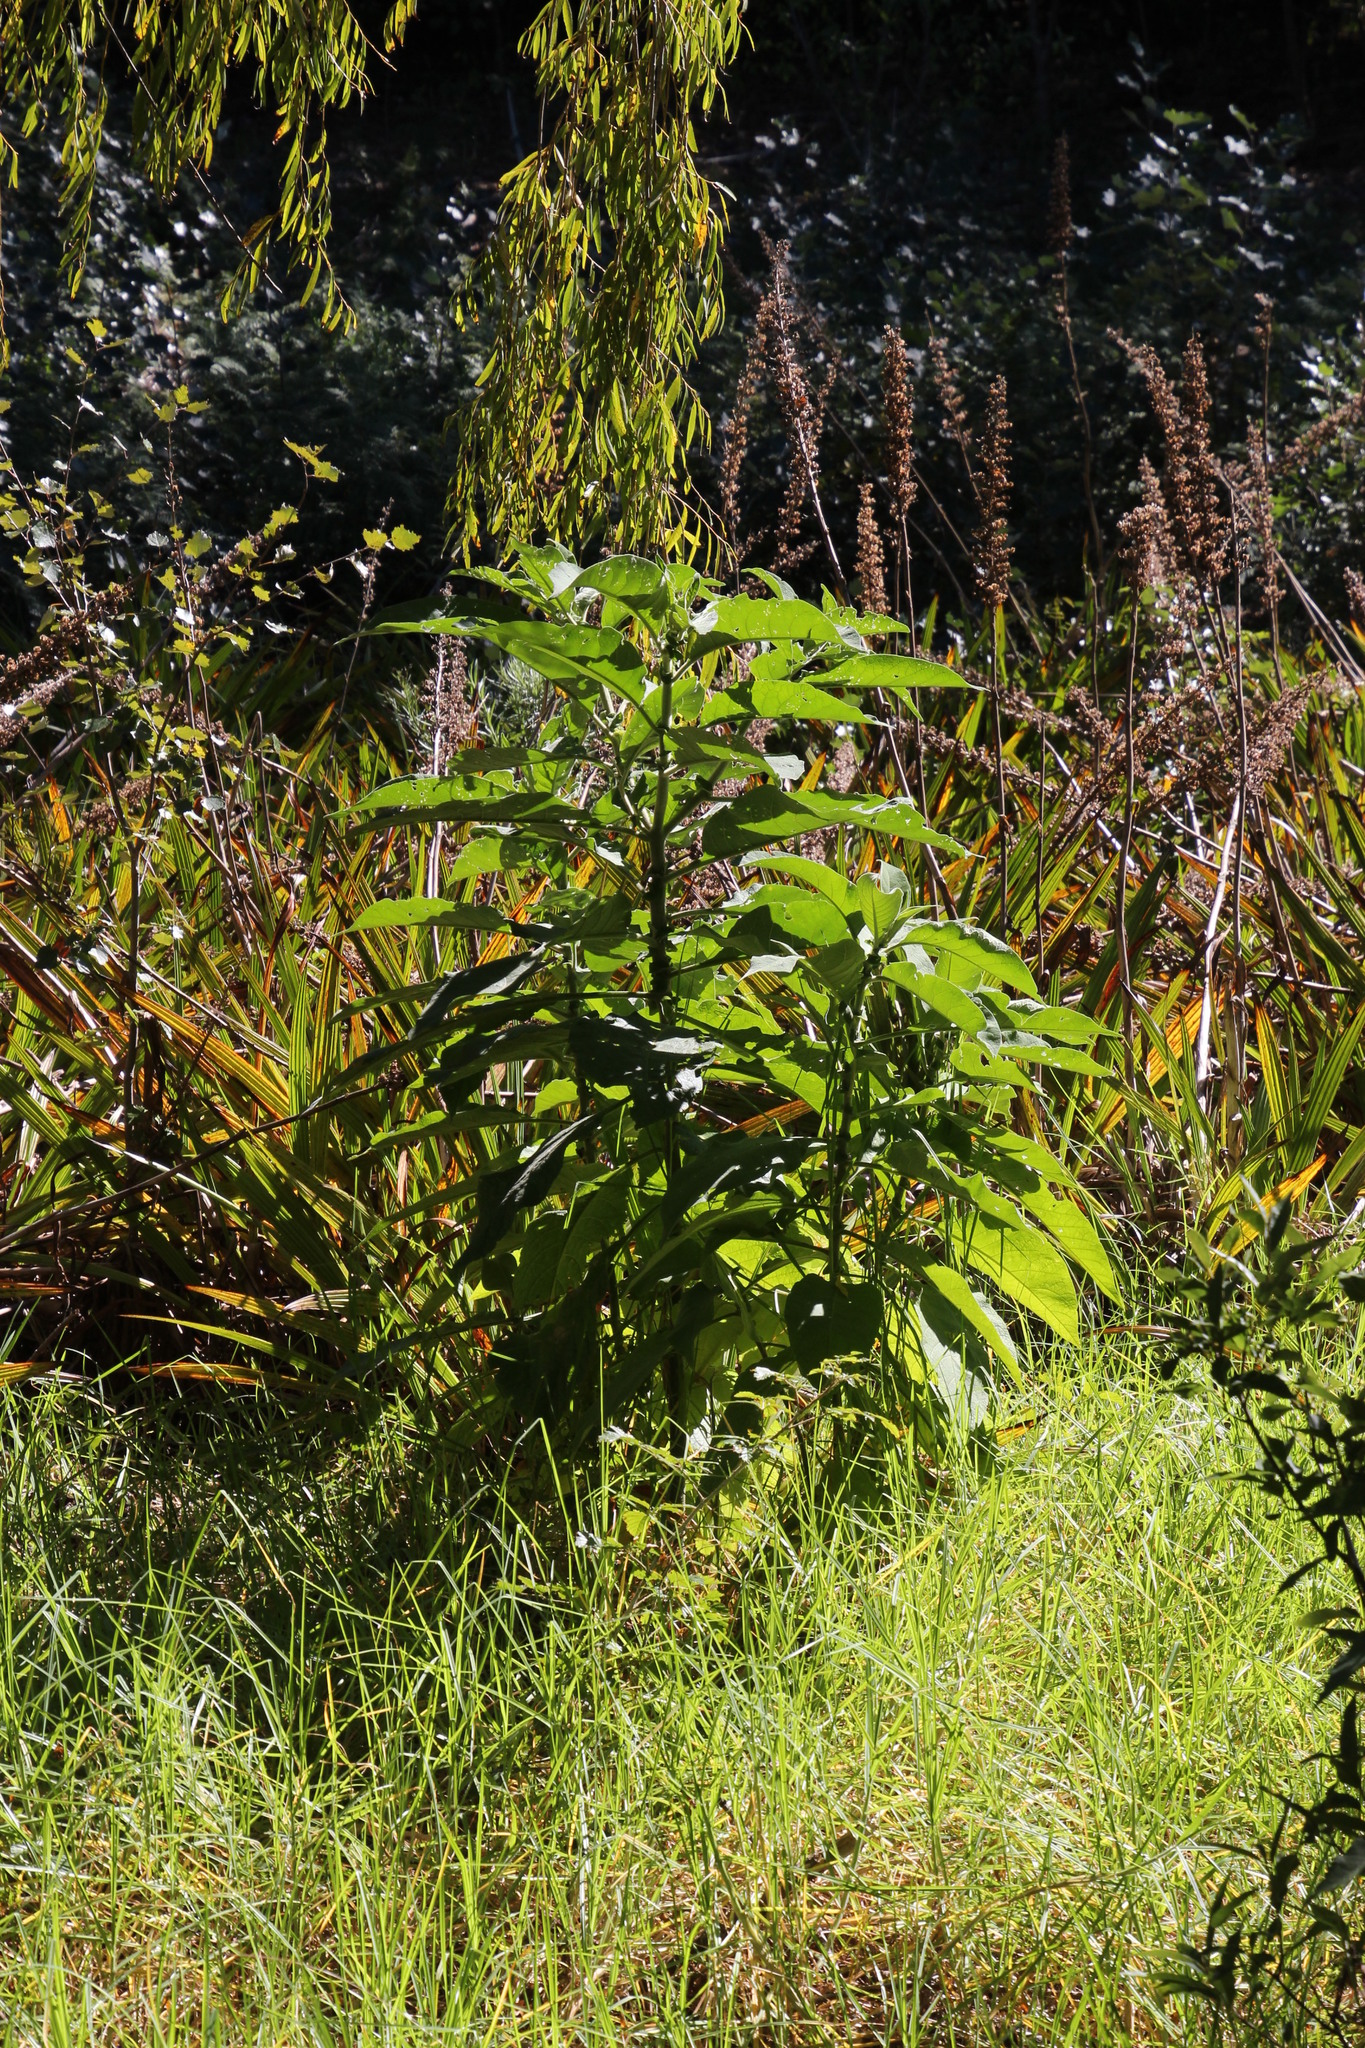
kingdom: Plantae
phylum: Tracheophyta
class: Magnoliopsida
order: Solanales
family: Solanaceae
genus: Solanum
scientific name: Solanum mauritianum
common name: Earleaf nightshade
